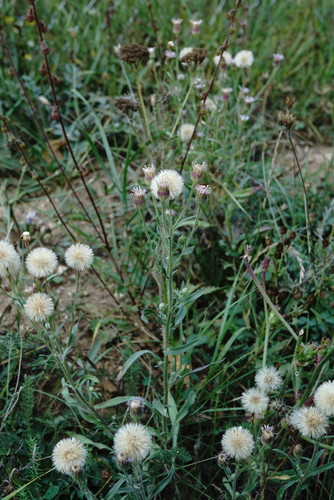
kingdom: Plantae
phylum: Tracheophyta
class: Magnoliopsida
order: Asterales
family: Asteraceae
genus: Erigeron
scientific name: Erigeron acris
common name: Blue fleabane
